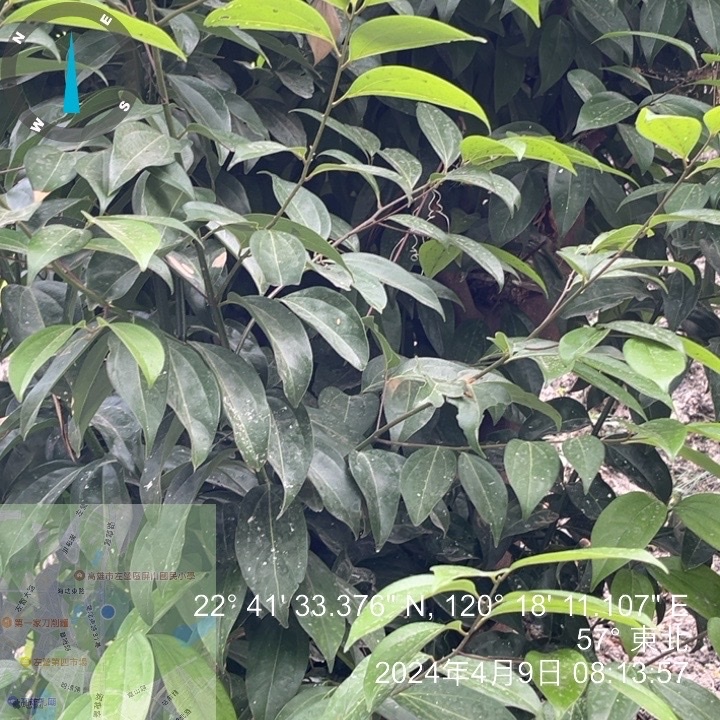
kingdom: Plantae
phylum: Tracheophyta
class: Magnoliopsida
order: Laurales
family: Lauraceae
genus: Cinnamomum
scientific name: Cinnamomum burmanni
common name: Padang cassia
